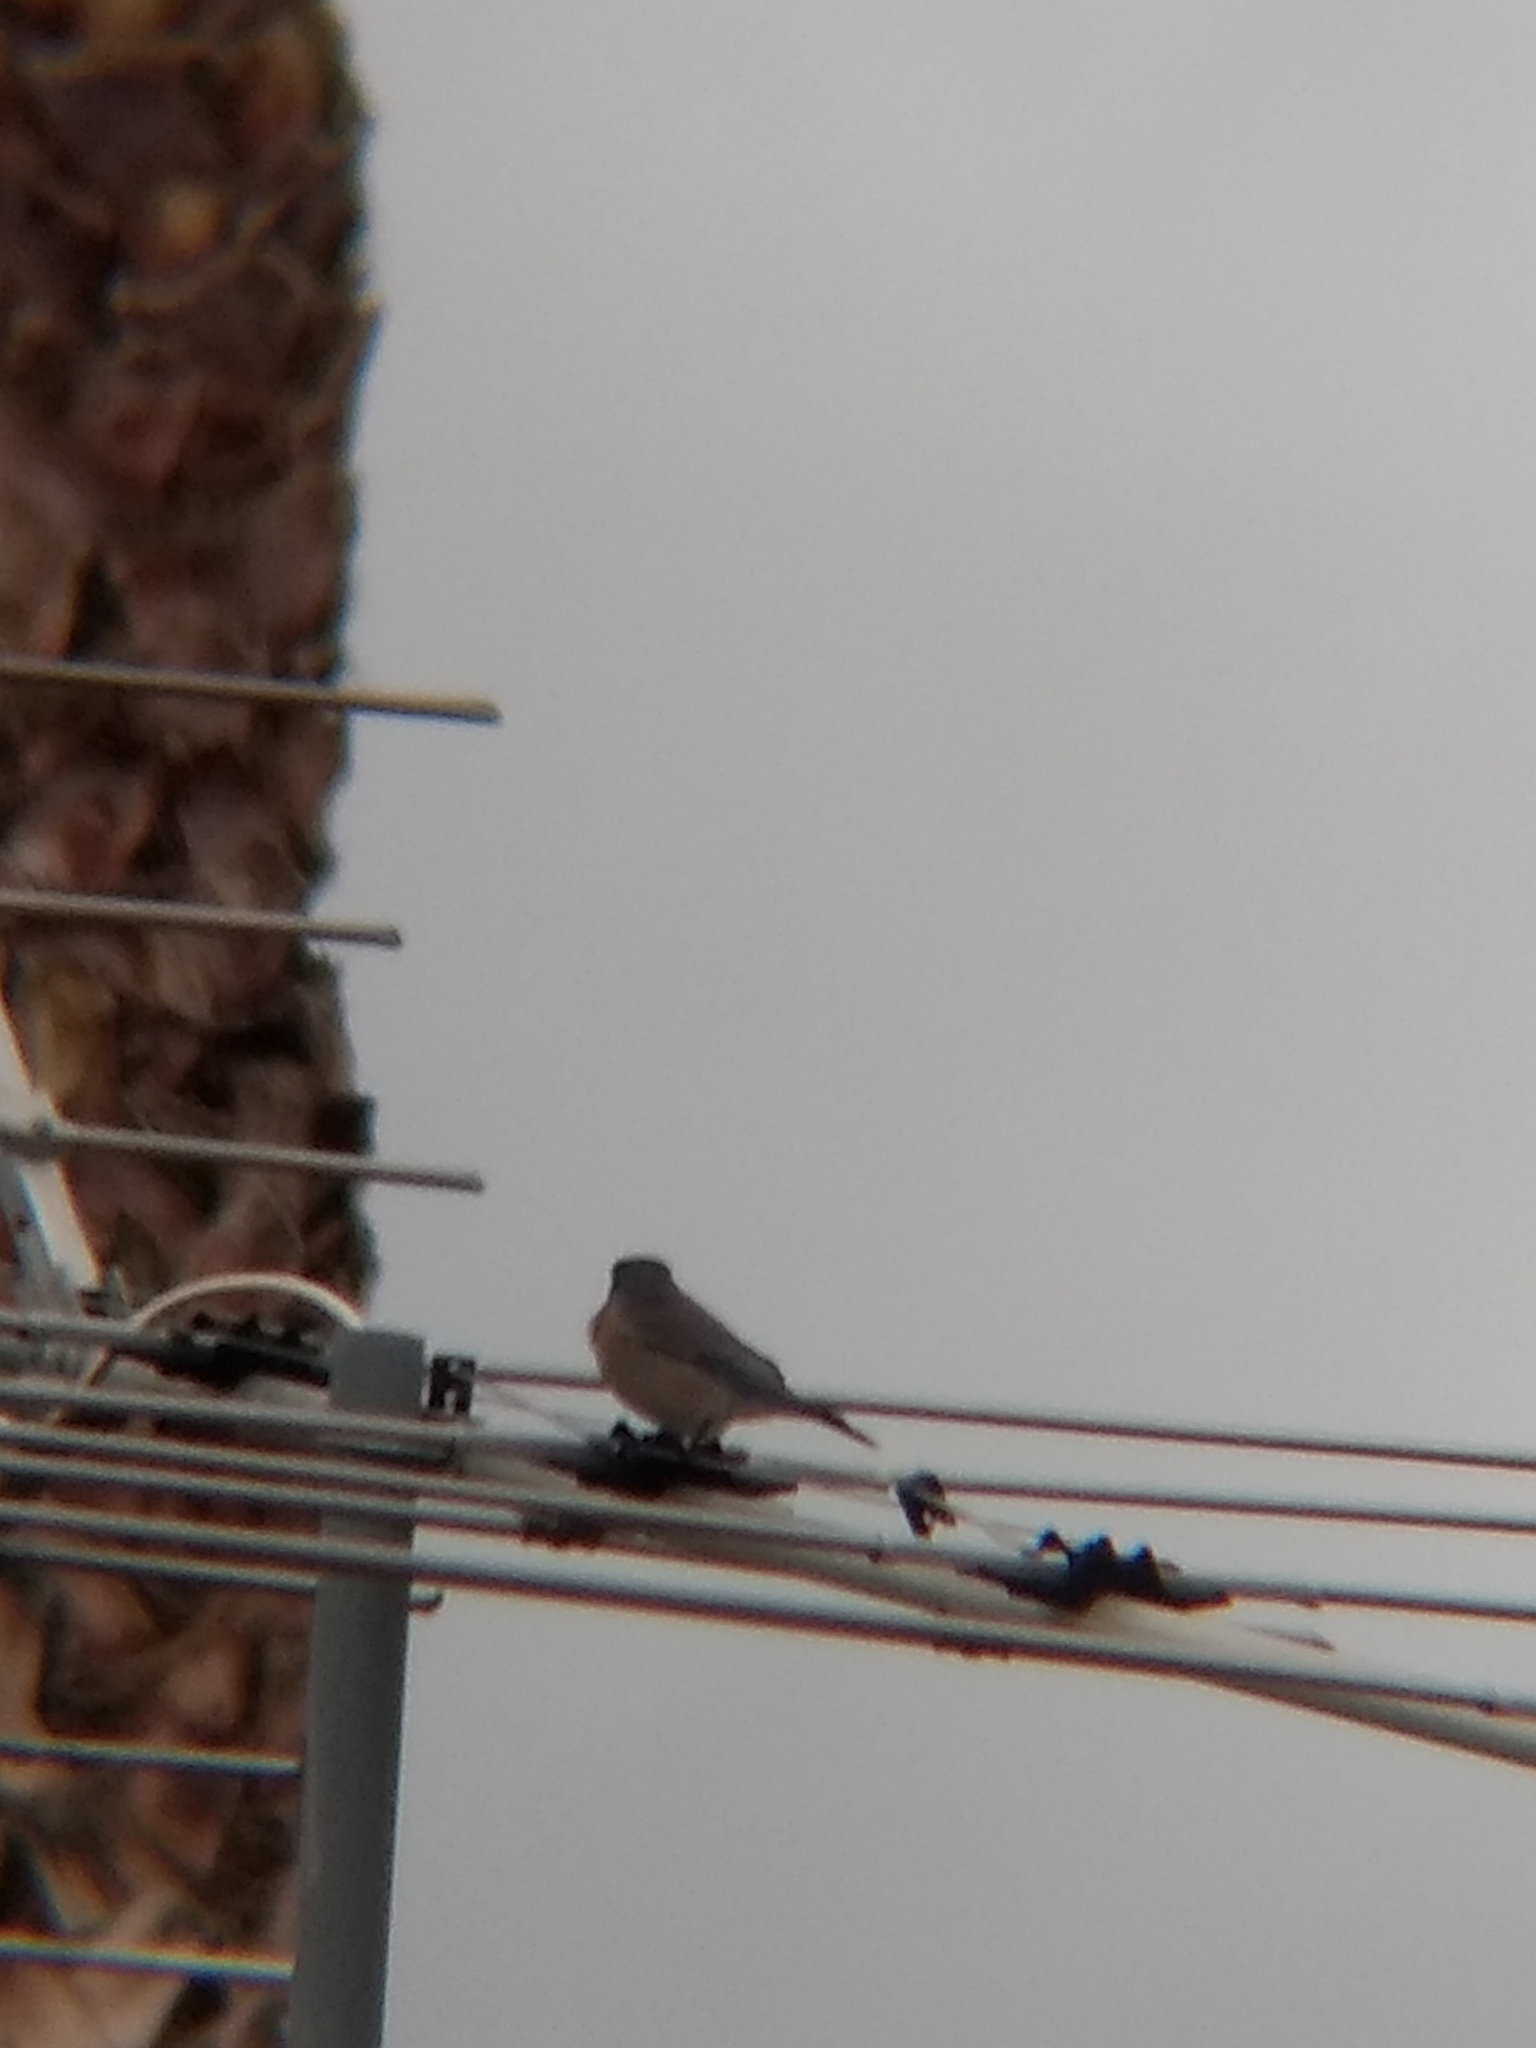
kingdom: Animalia
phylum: Chordata
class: Aves
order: Passeriformes
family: Turdidae
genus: Sialia
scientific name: Sialia mexicana
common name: Western bluebird
